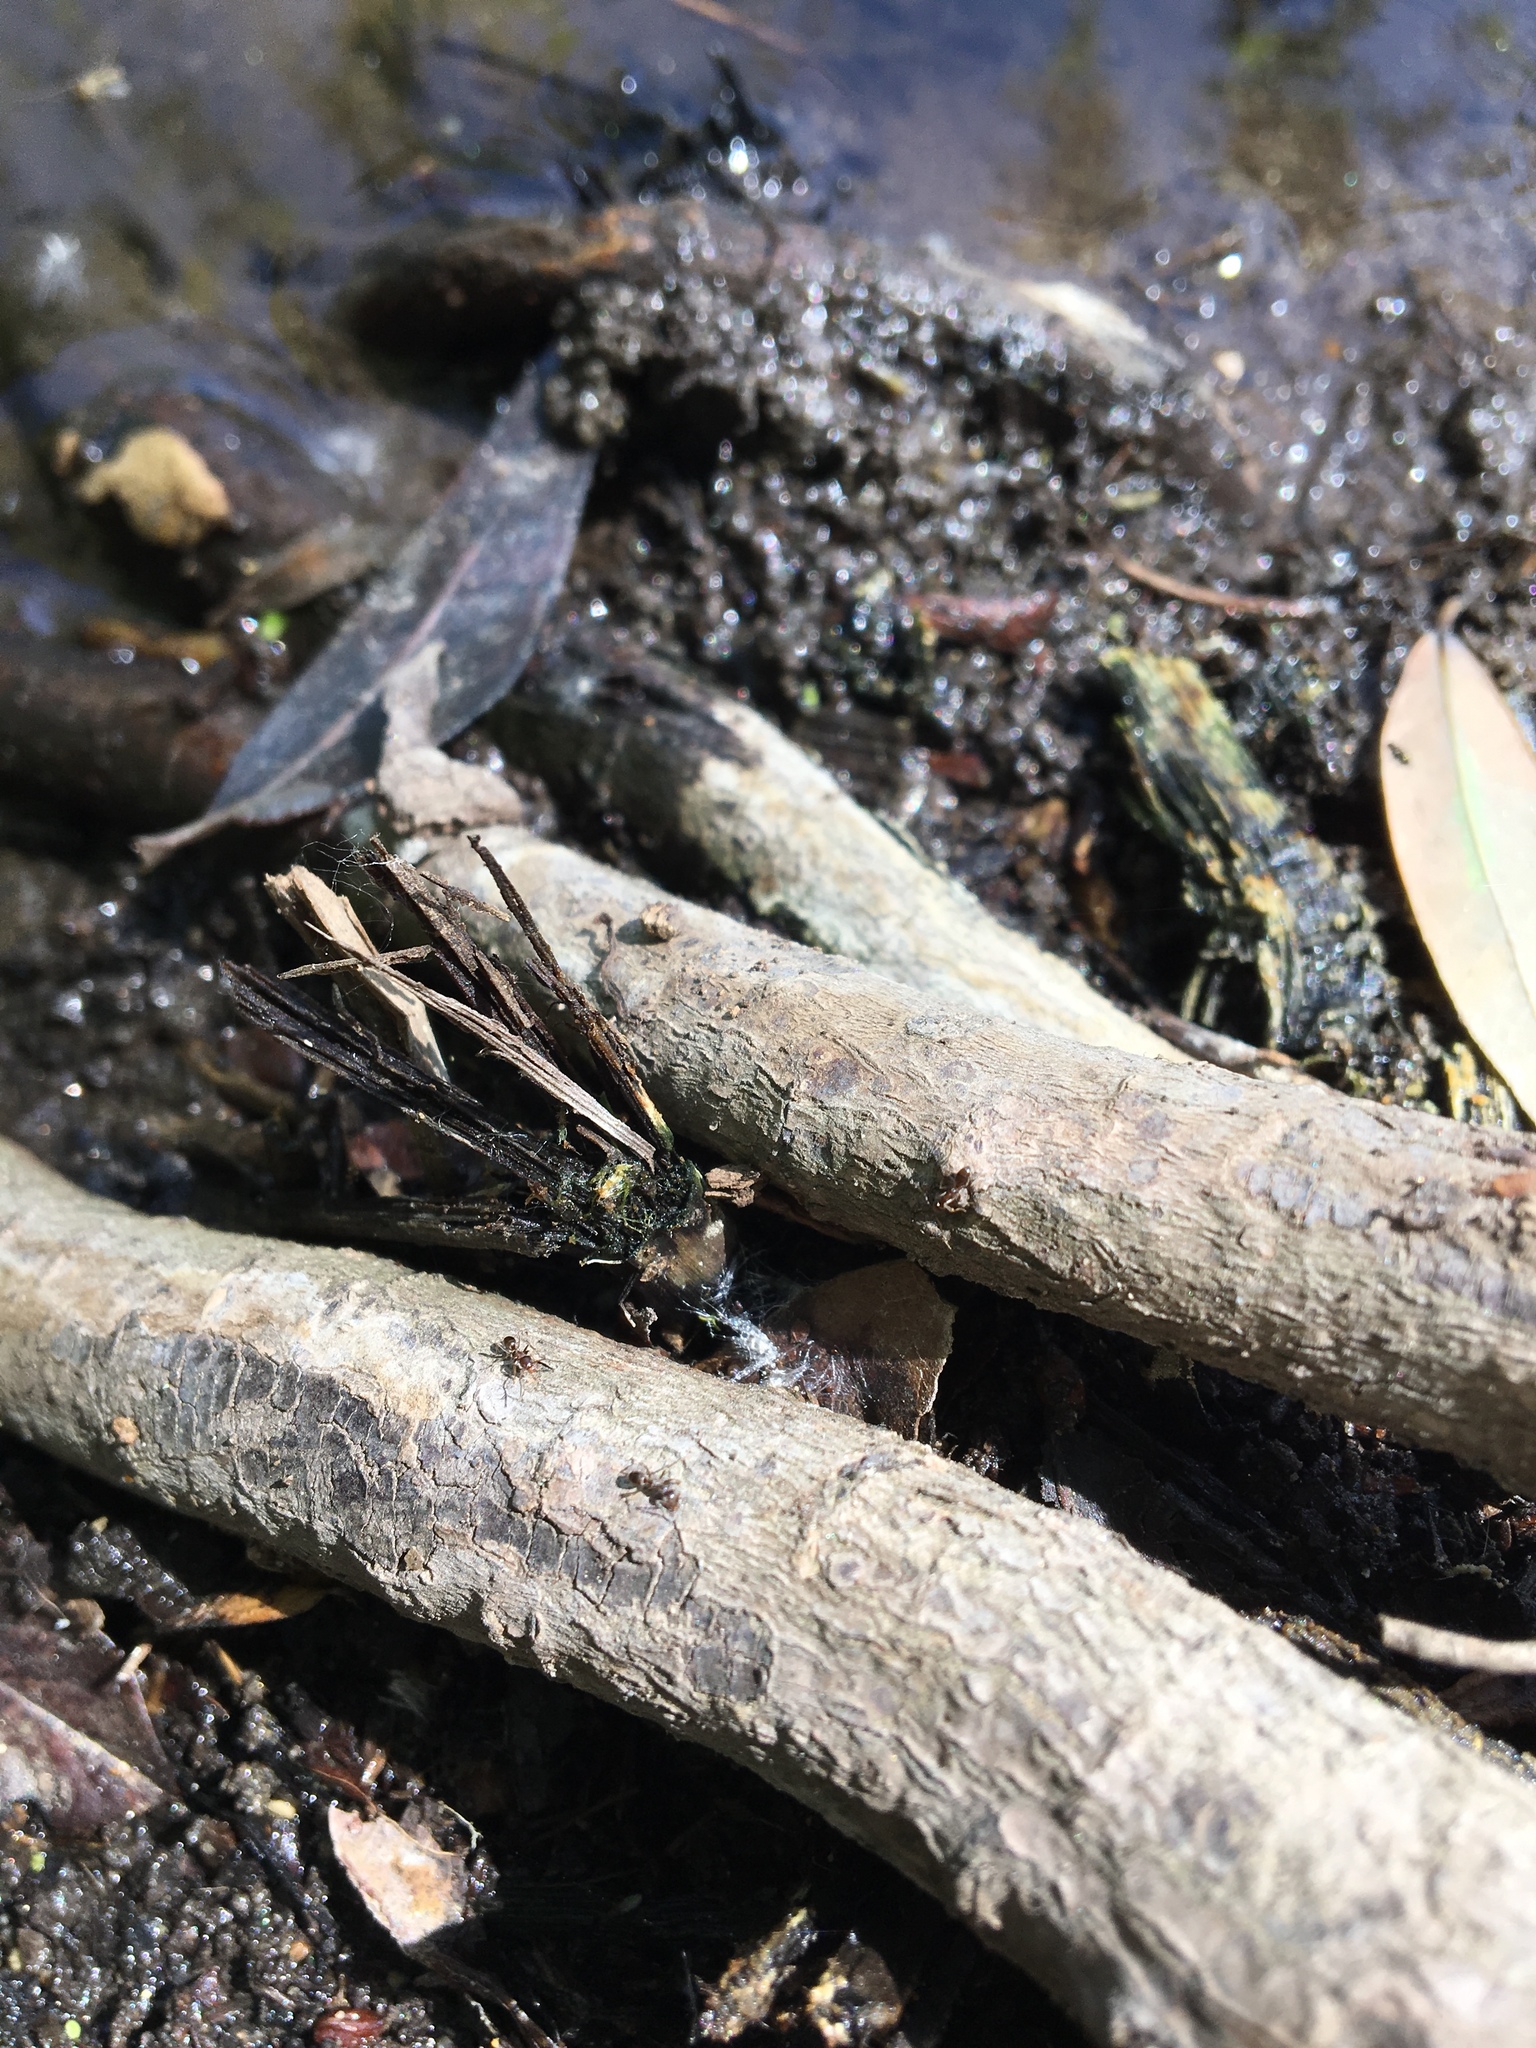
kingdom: Animalia
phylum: Arthropoda
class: Insecta
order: Hymenoptera
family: Formicidae
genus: Linepithema
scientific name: Linepithema humile
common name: Argentine ant
